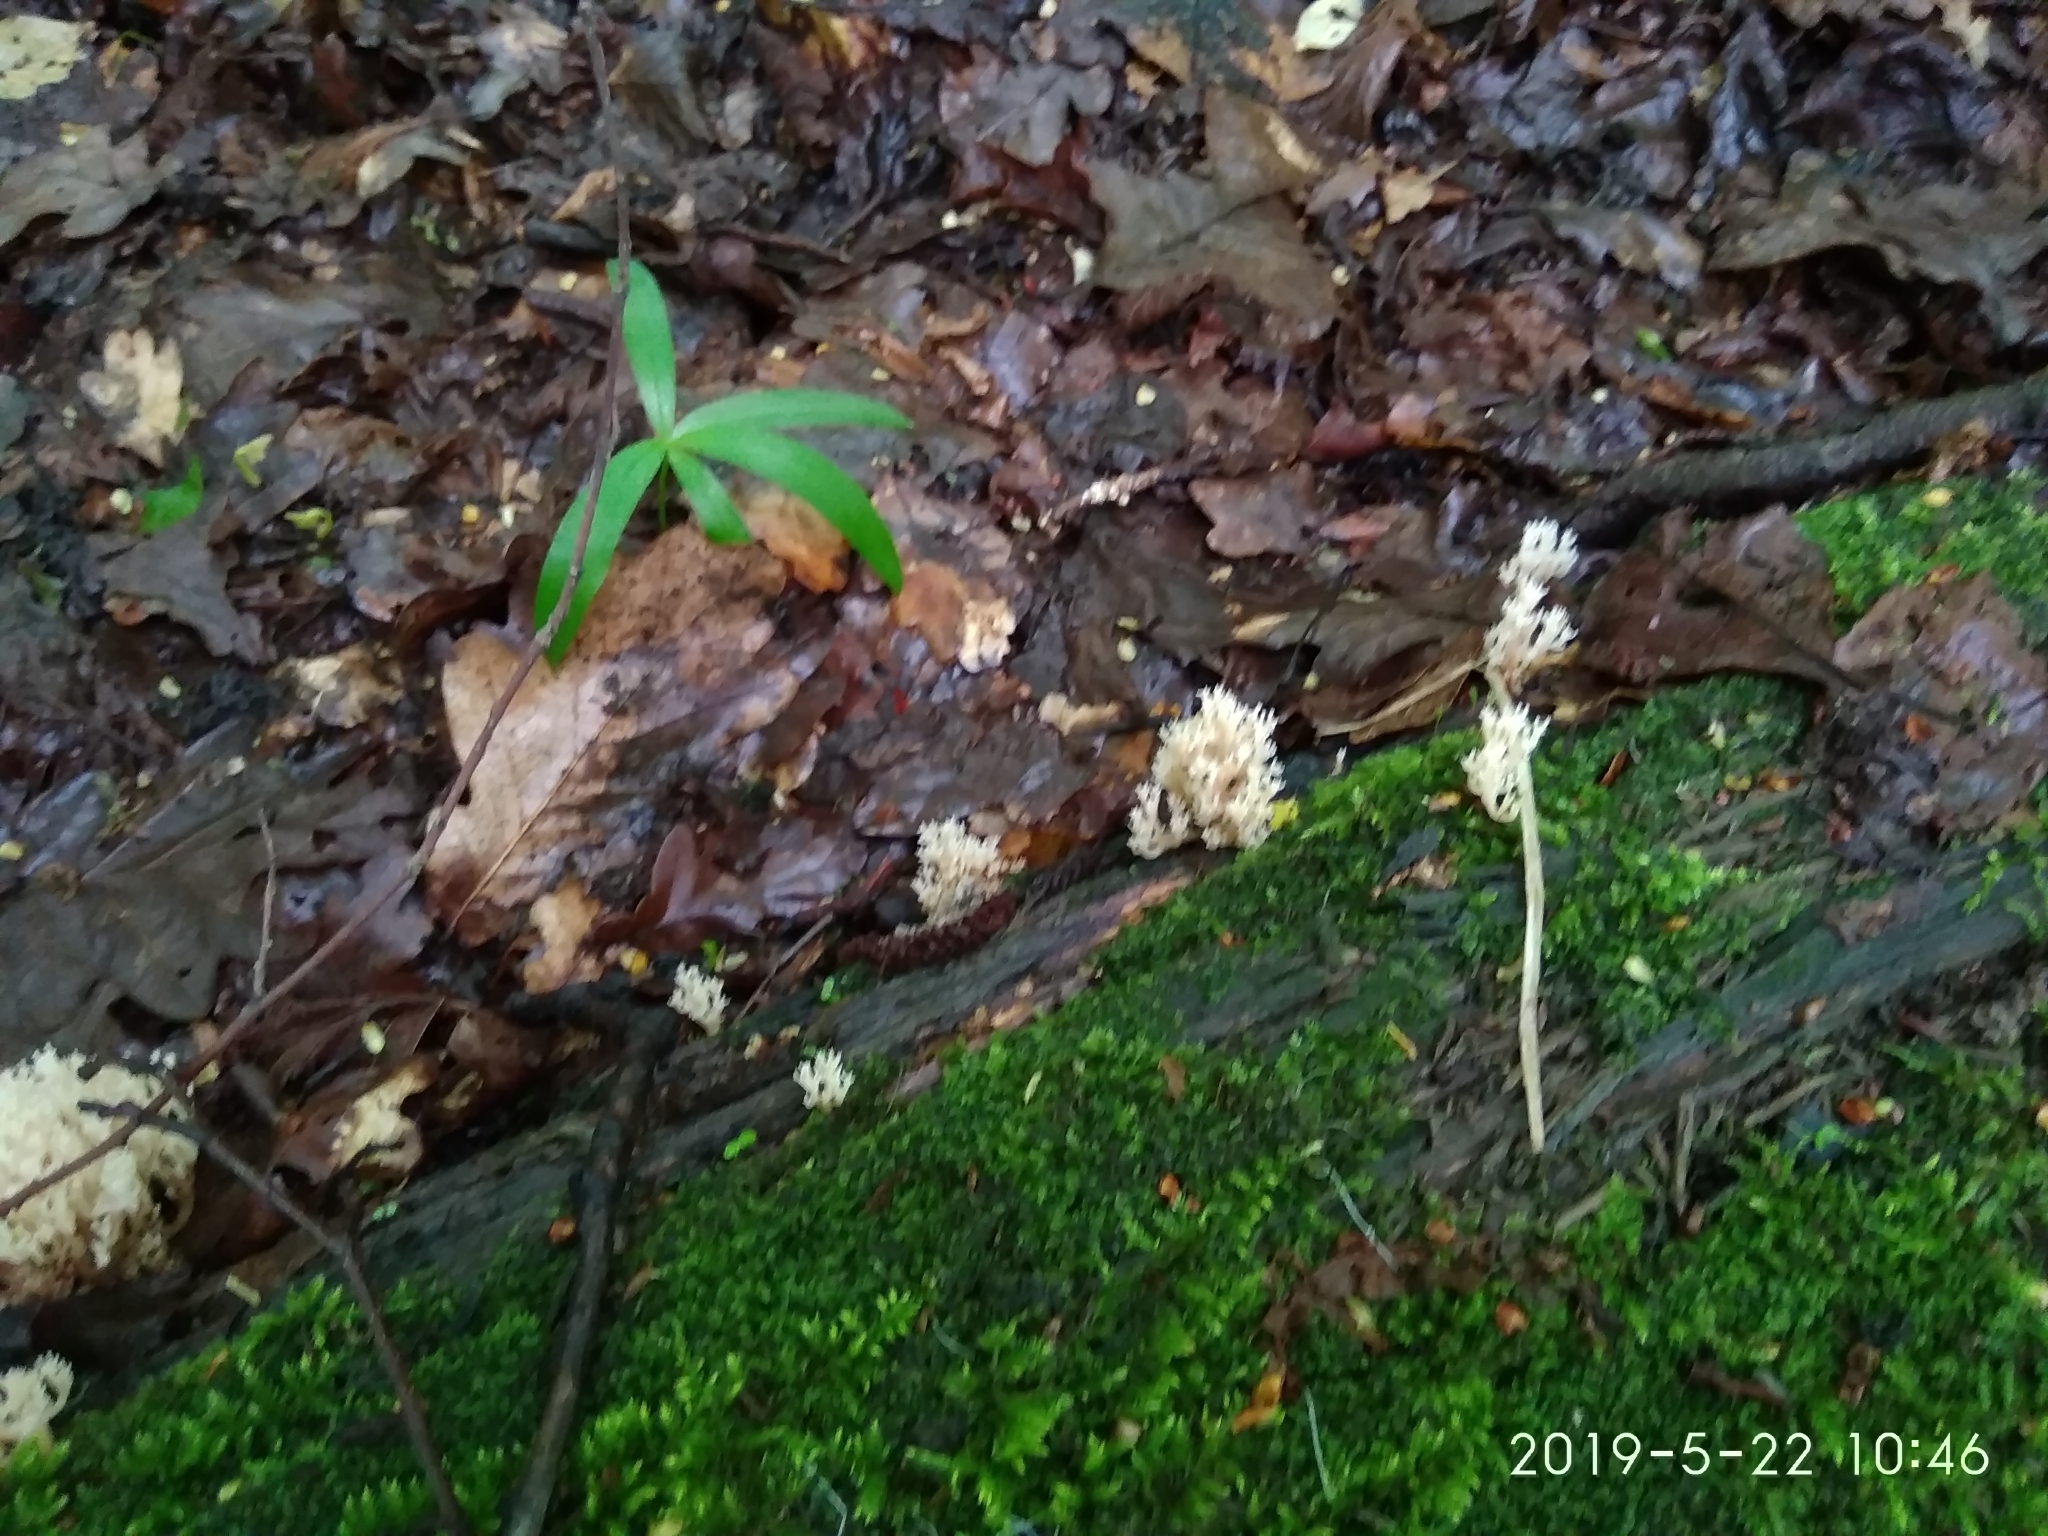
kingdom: Fungi
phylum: Basidiomycota
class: Agaricomycetes
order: Russulales
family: Auriscalpiaceae
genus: Artomyces
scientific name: Artomyces pyxidatus
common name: Crown-tipped coral fungus
